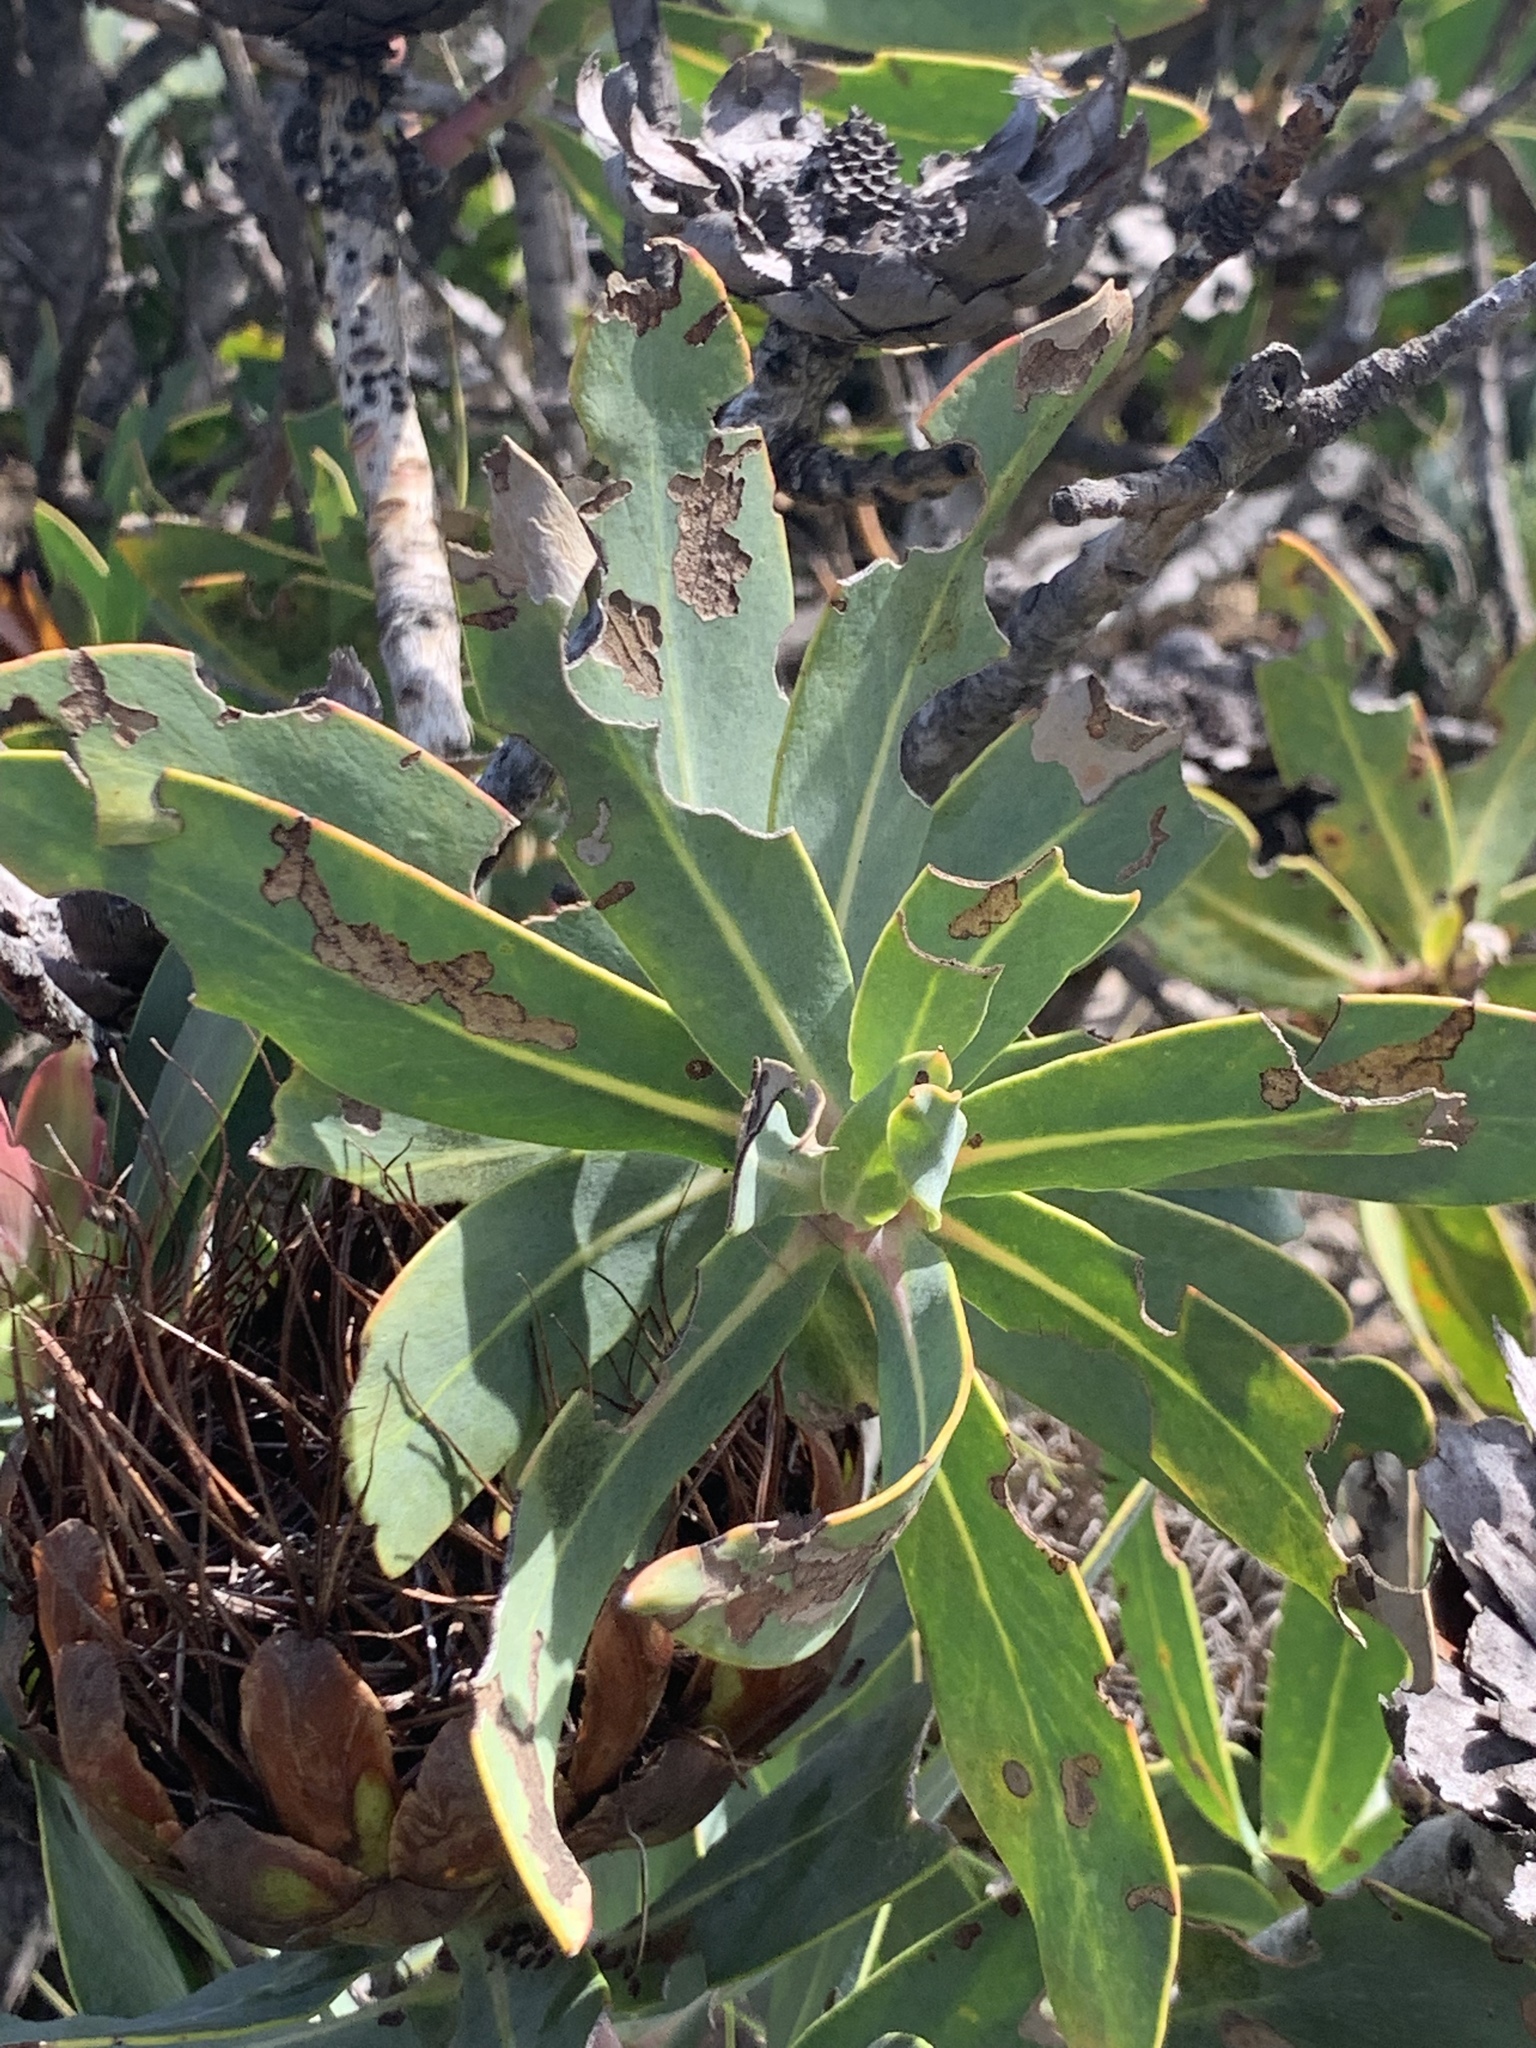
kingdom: Plantae
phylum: Tracheophyta
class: Magnoliopsida
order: Proteales
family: Proteaceae
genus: Protea
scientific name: Protea nitida
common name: Tree protea
